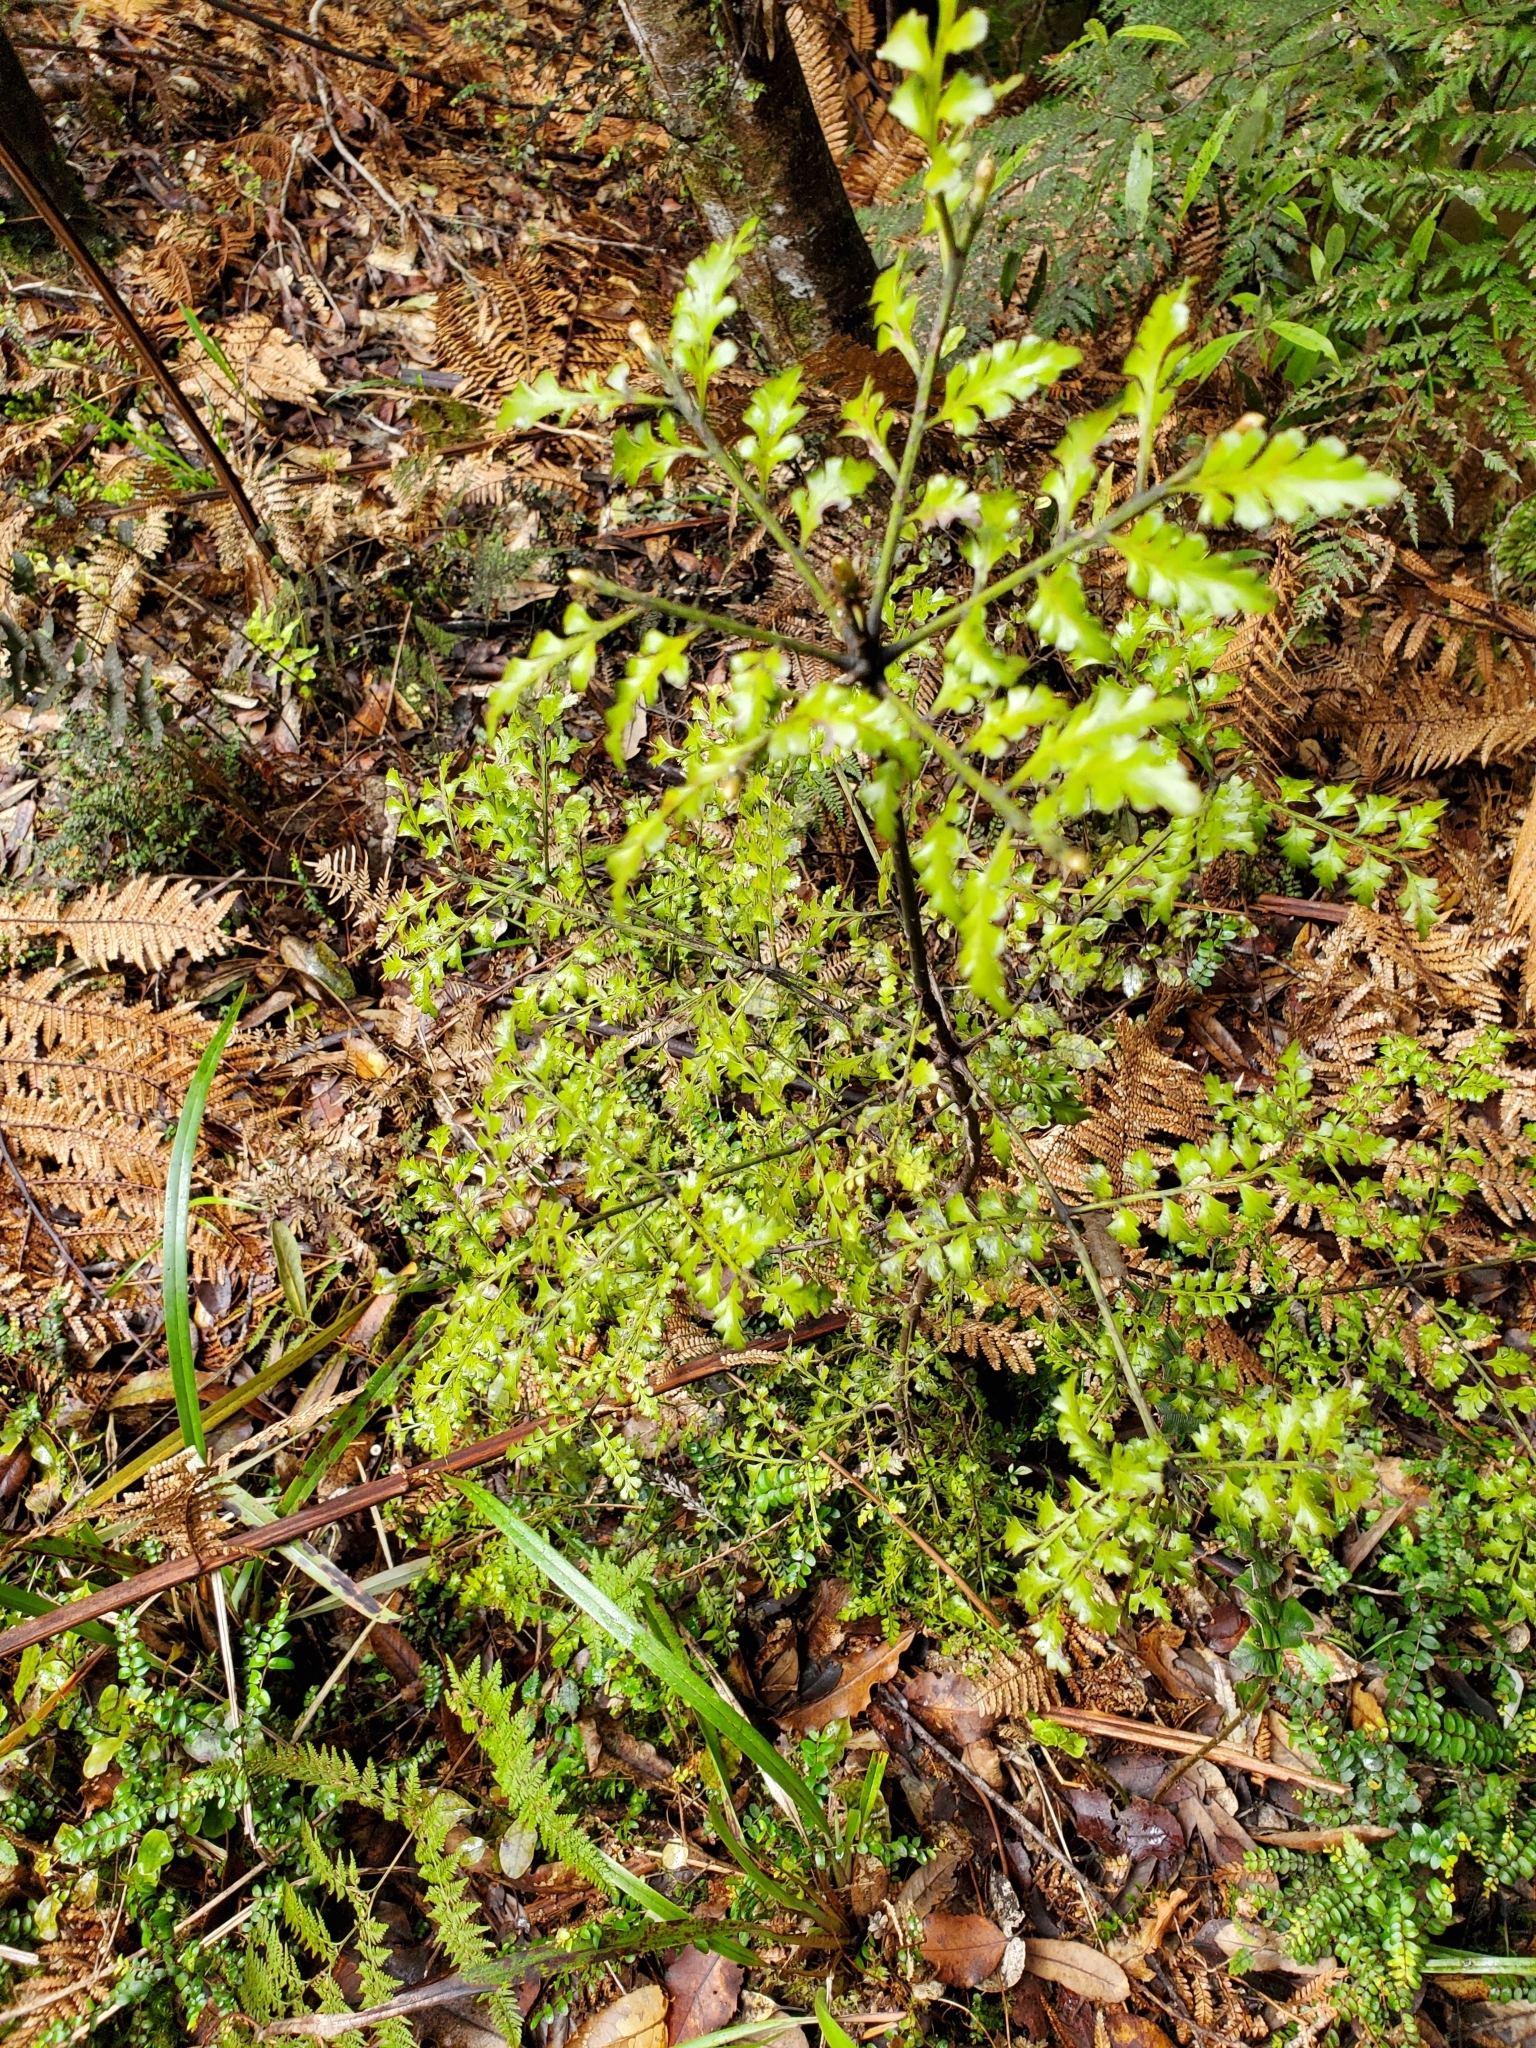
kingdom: Plantae
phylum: Tracheophyta
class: Pinopsida
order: Pinales
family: Phyllocladaceae
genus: Phyllocladus
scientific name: Phyllocladus trichomanoides
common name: Celery pine
